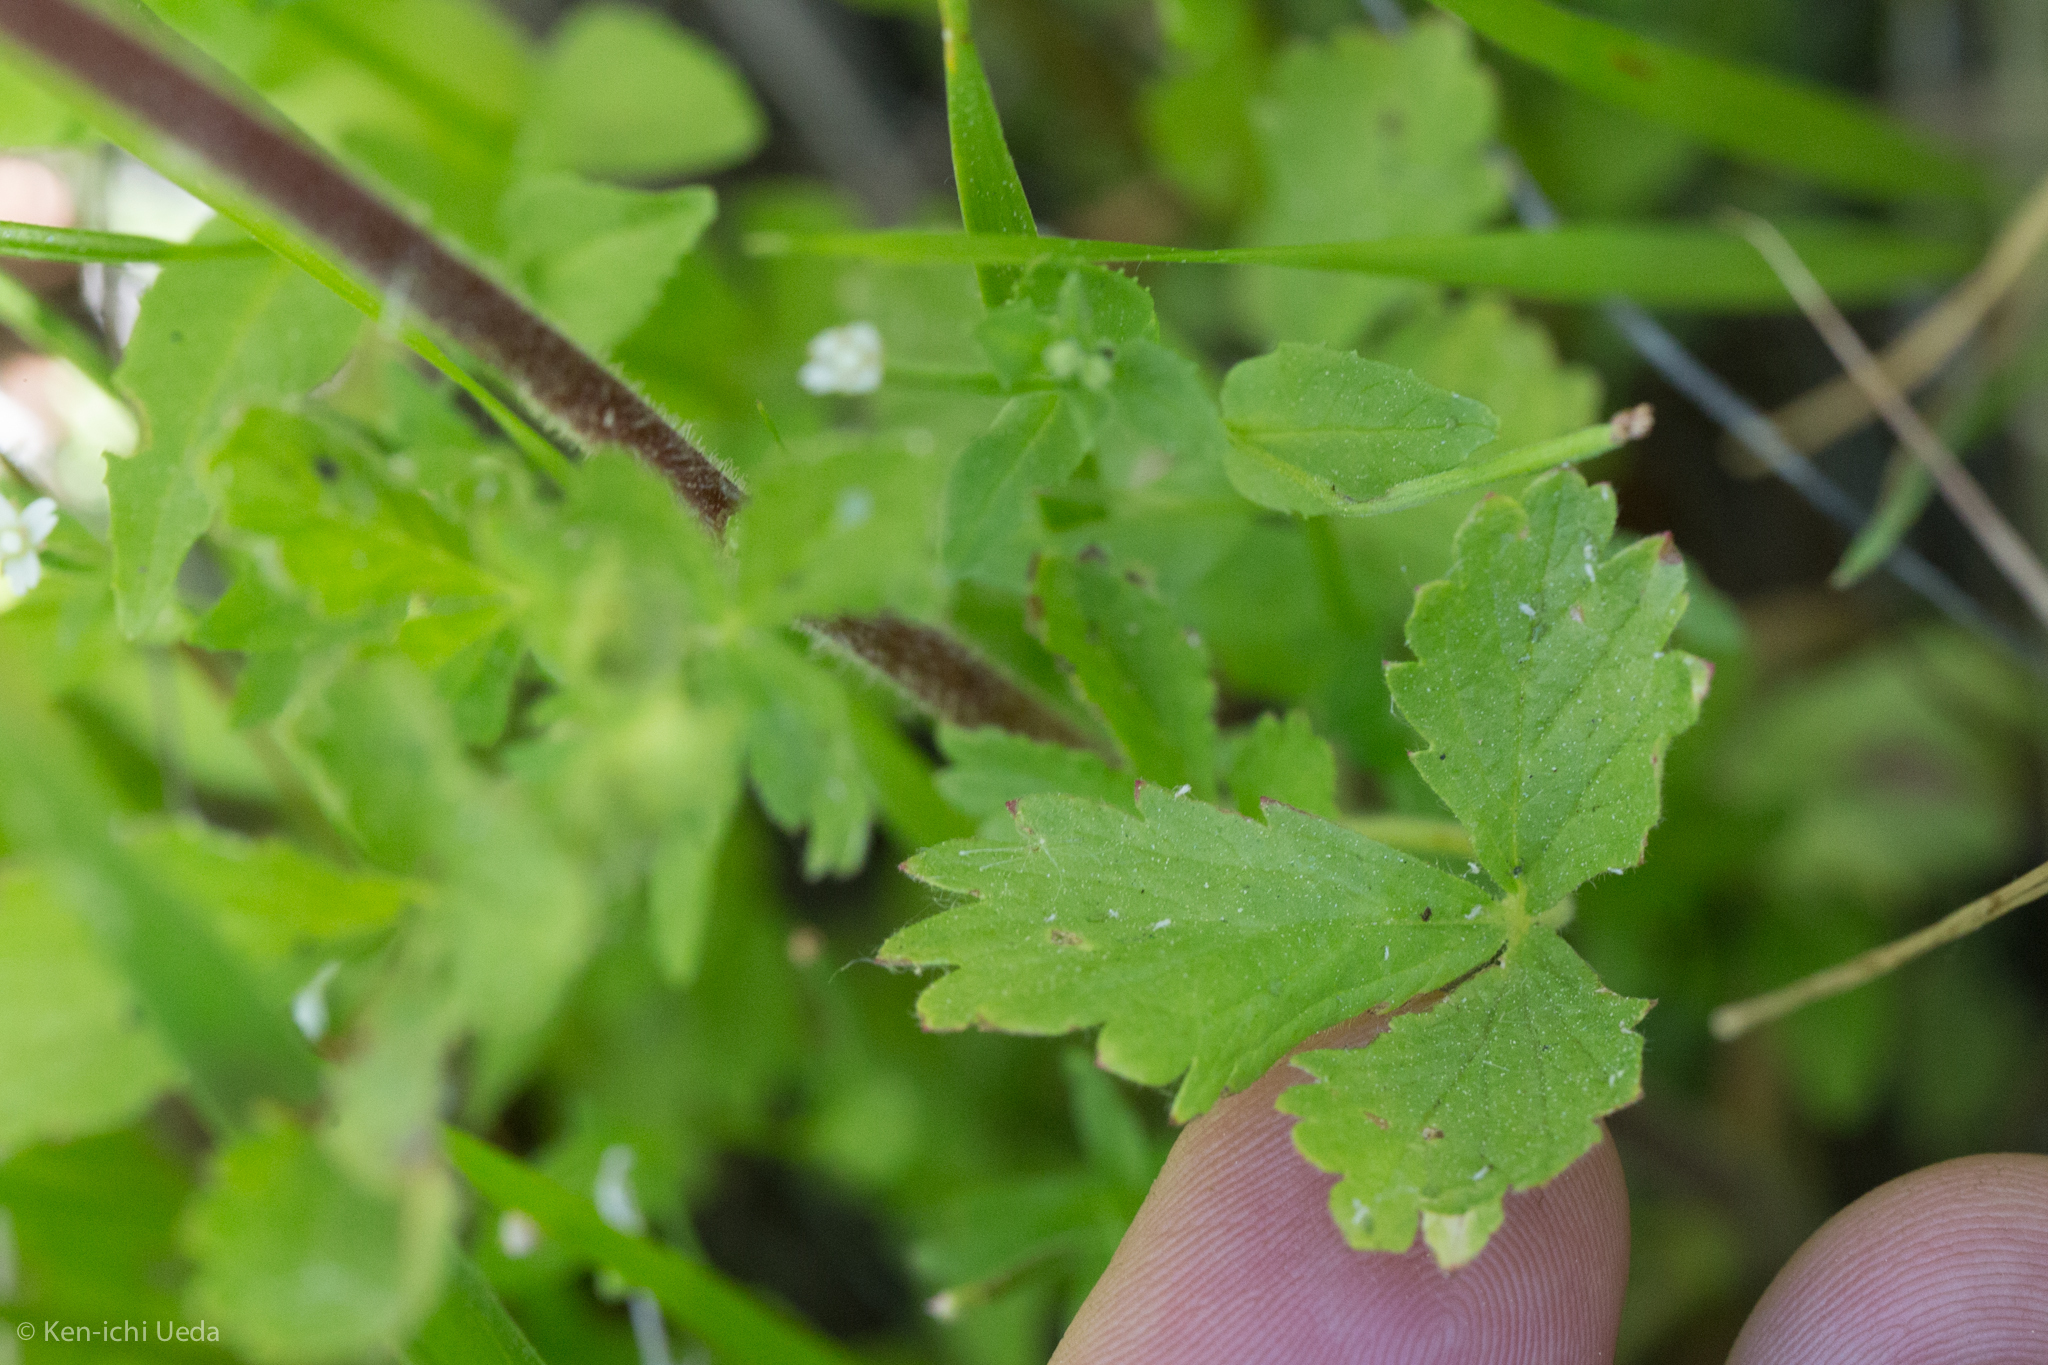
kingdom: Plantae
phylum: Tracheophyta
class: Magnoliopsida
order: Rosales
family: Rosaceae
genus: Potentilla
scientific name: Potentilla biennis
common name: Greene's cinquefoil
